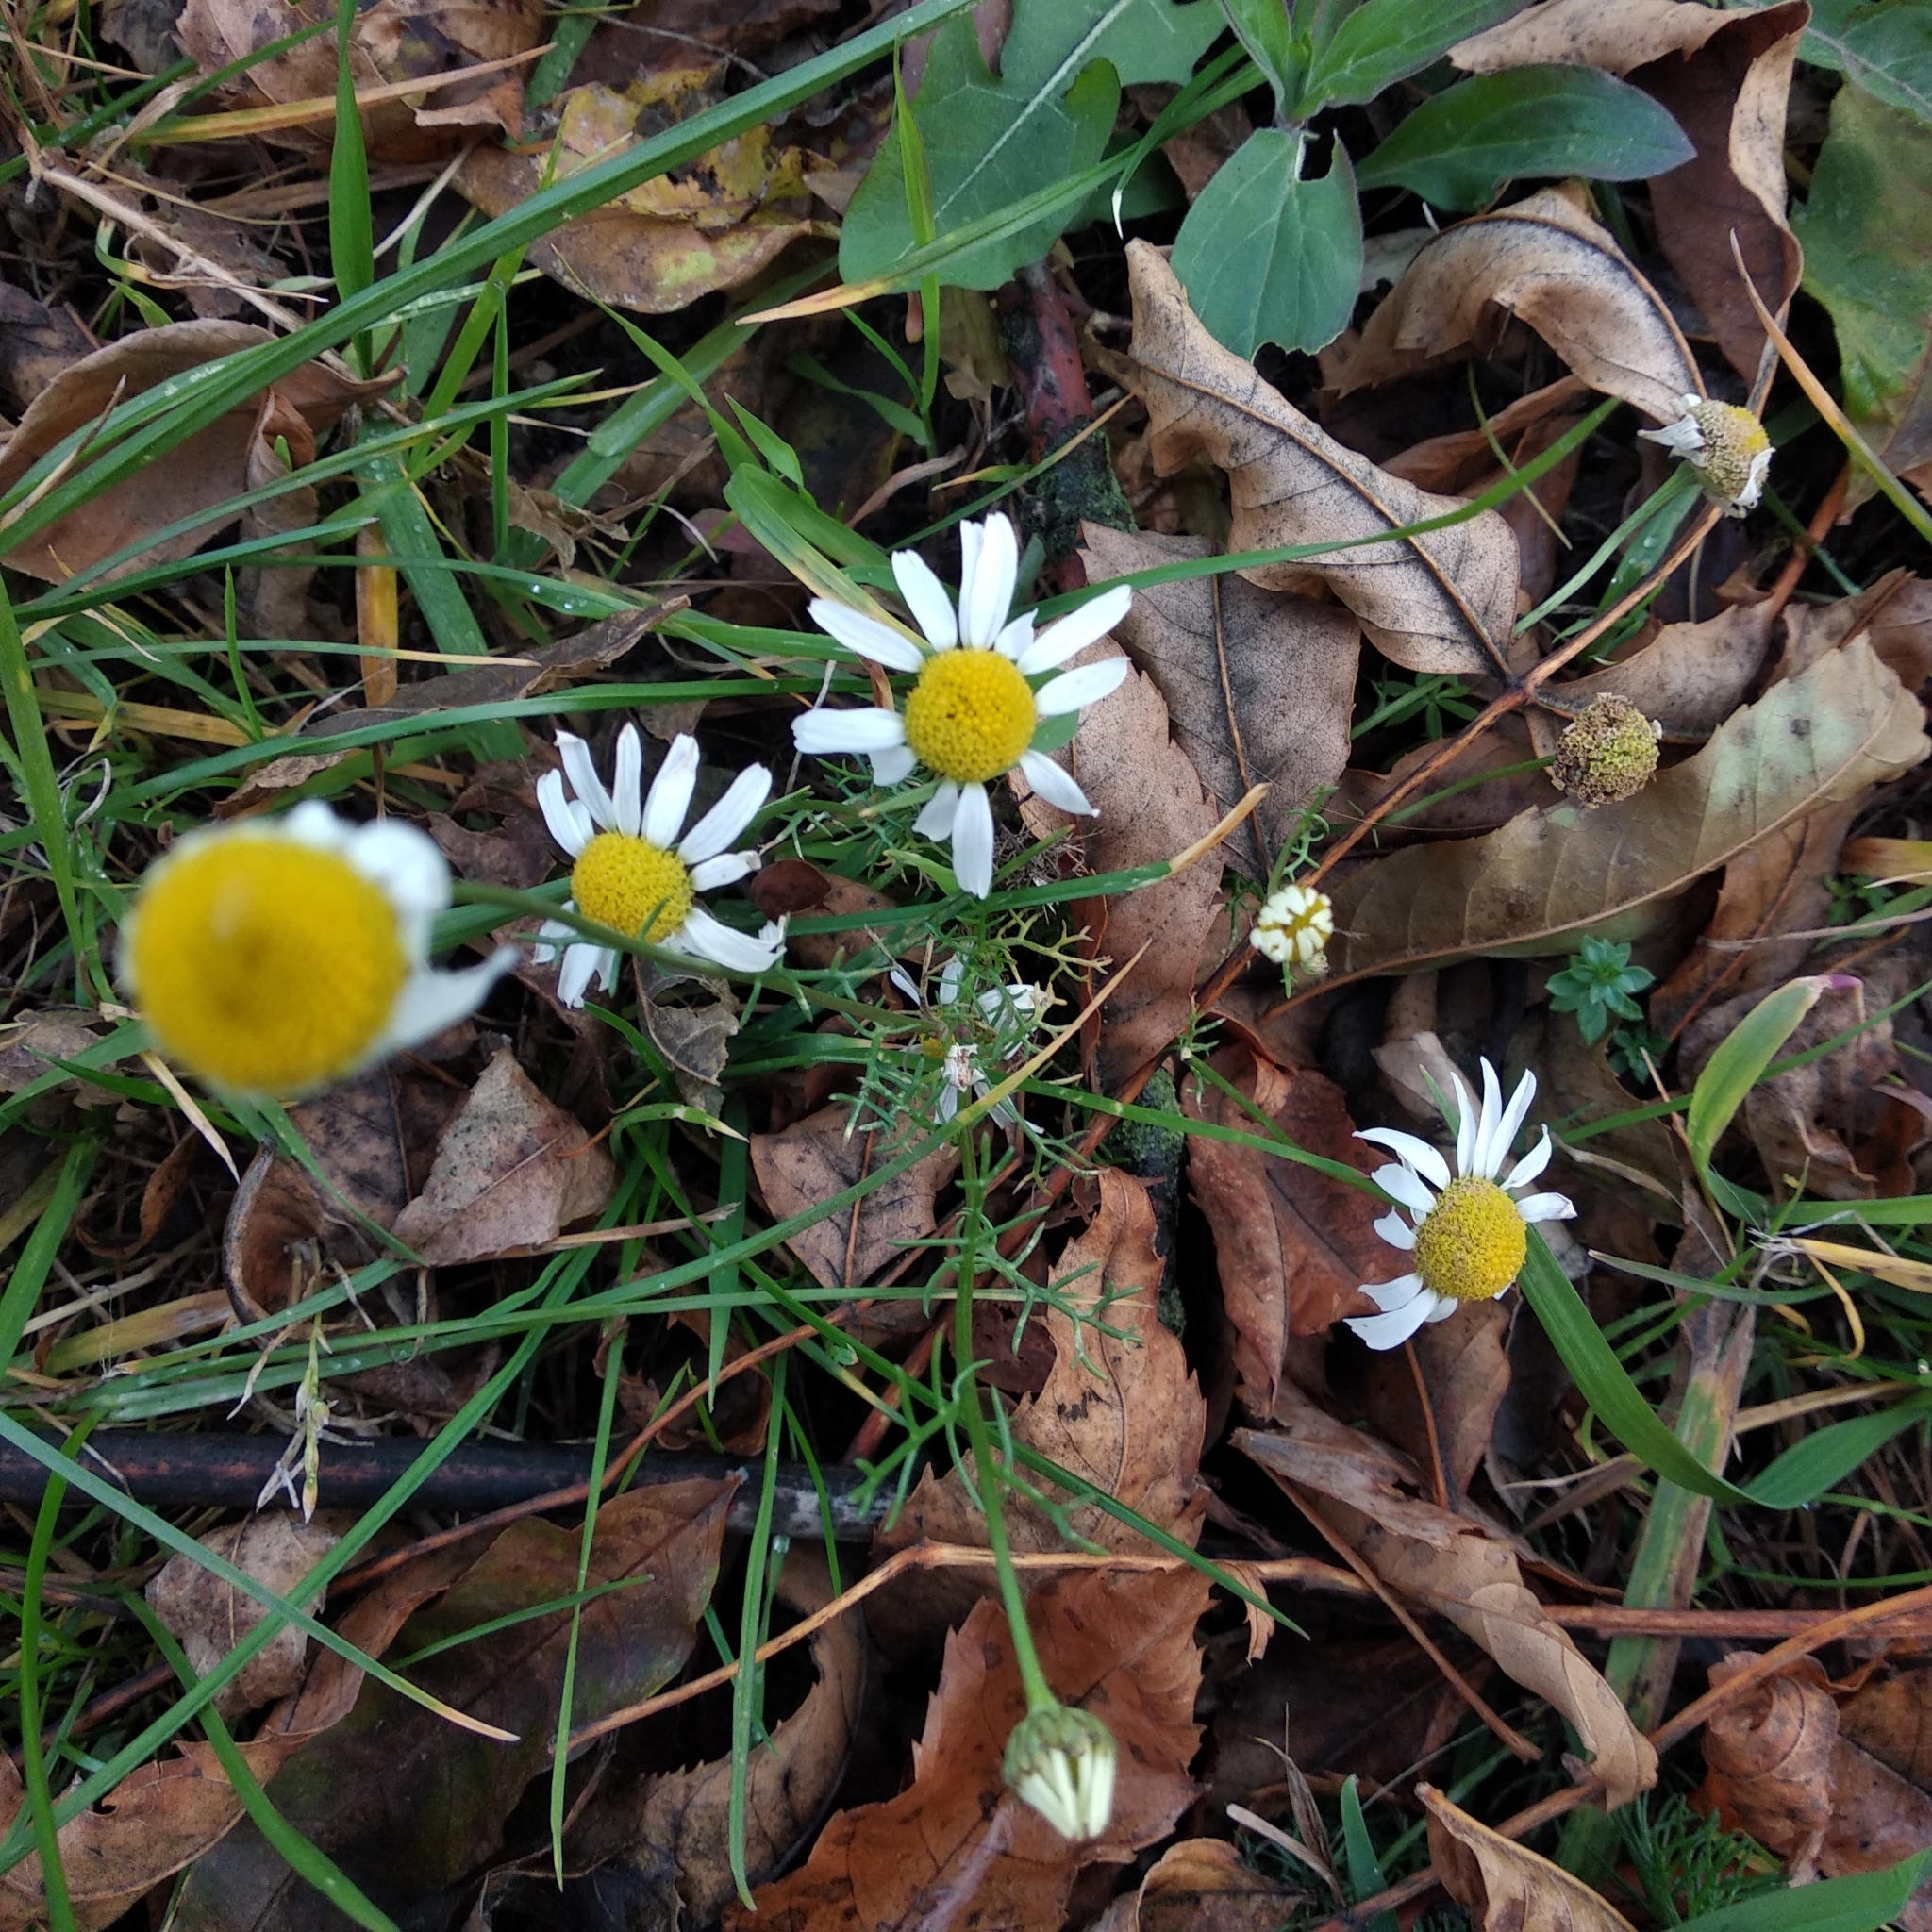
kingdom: Plantae
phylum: Tracheophyta
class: Magnoliopsida
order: Asterales
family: Asteraceae
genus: Tripleurospermum
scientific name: Tripleurospermum inodorum
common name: Scentless mayweed
